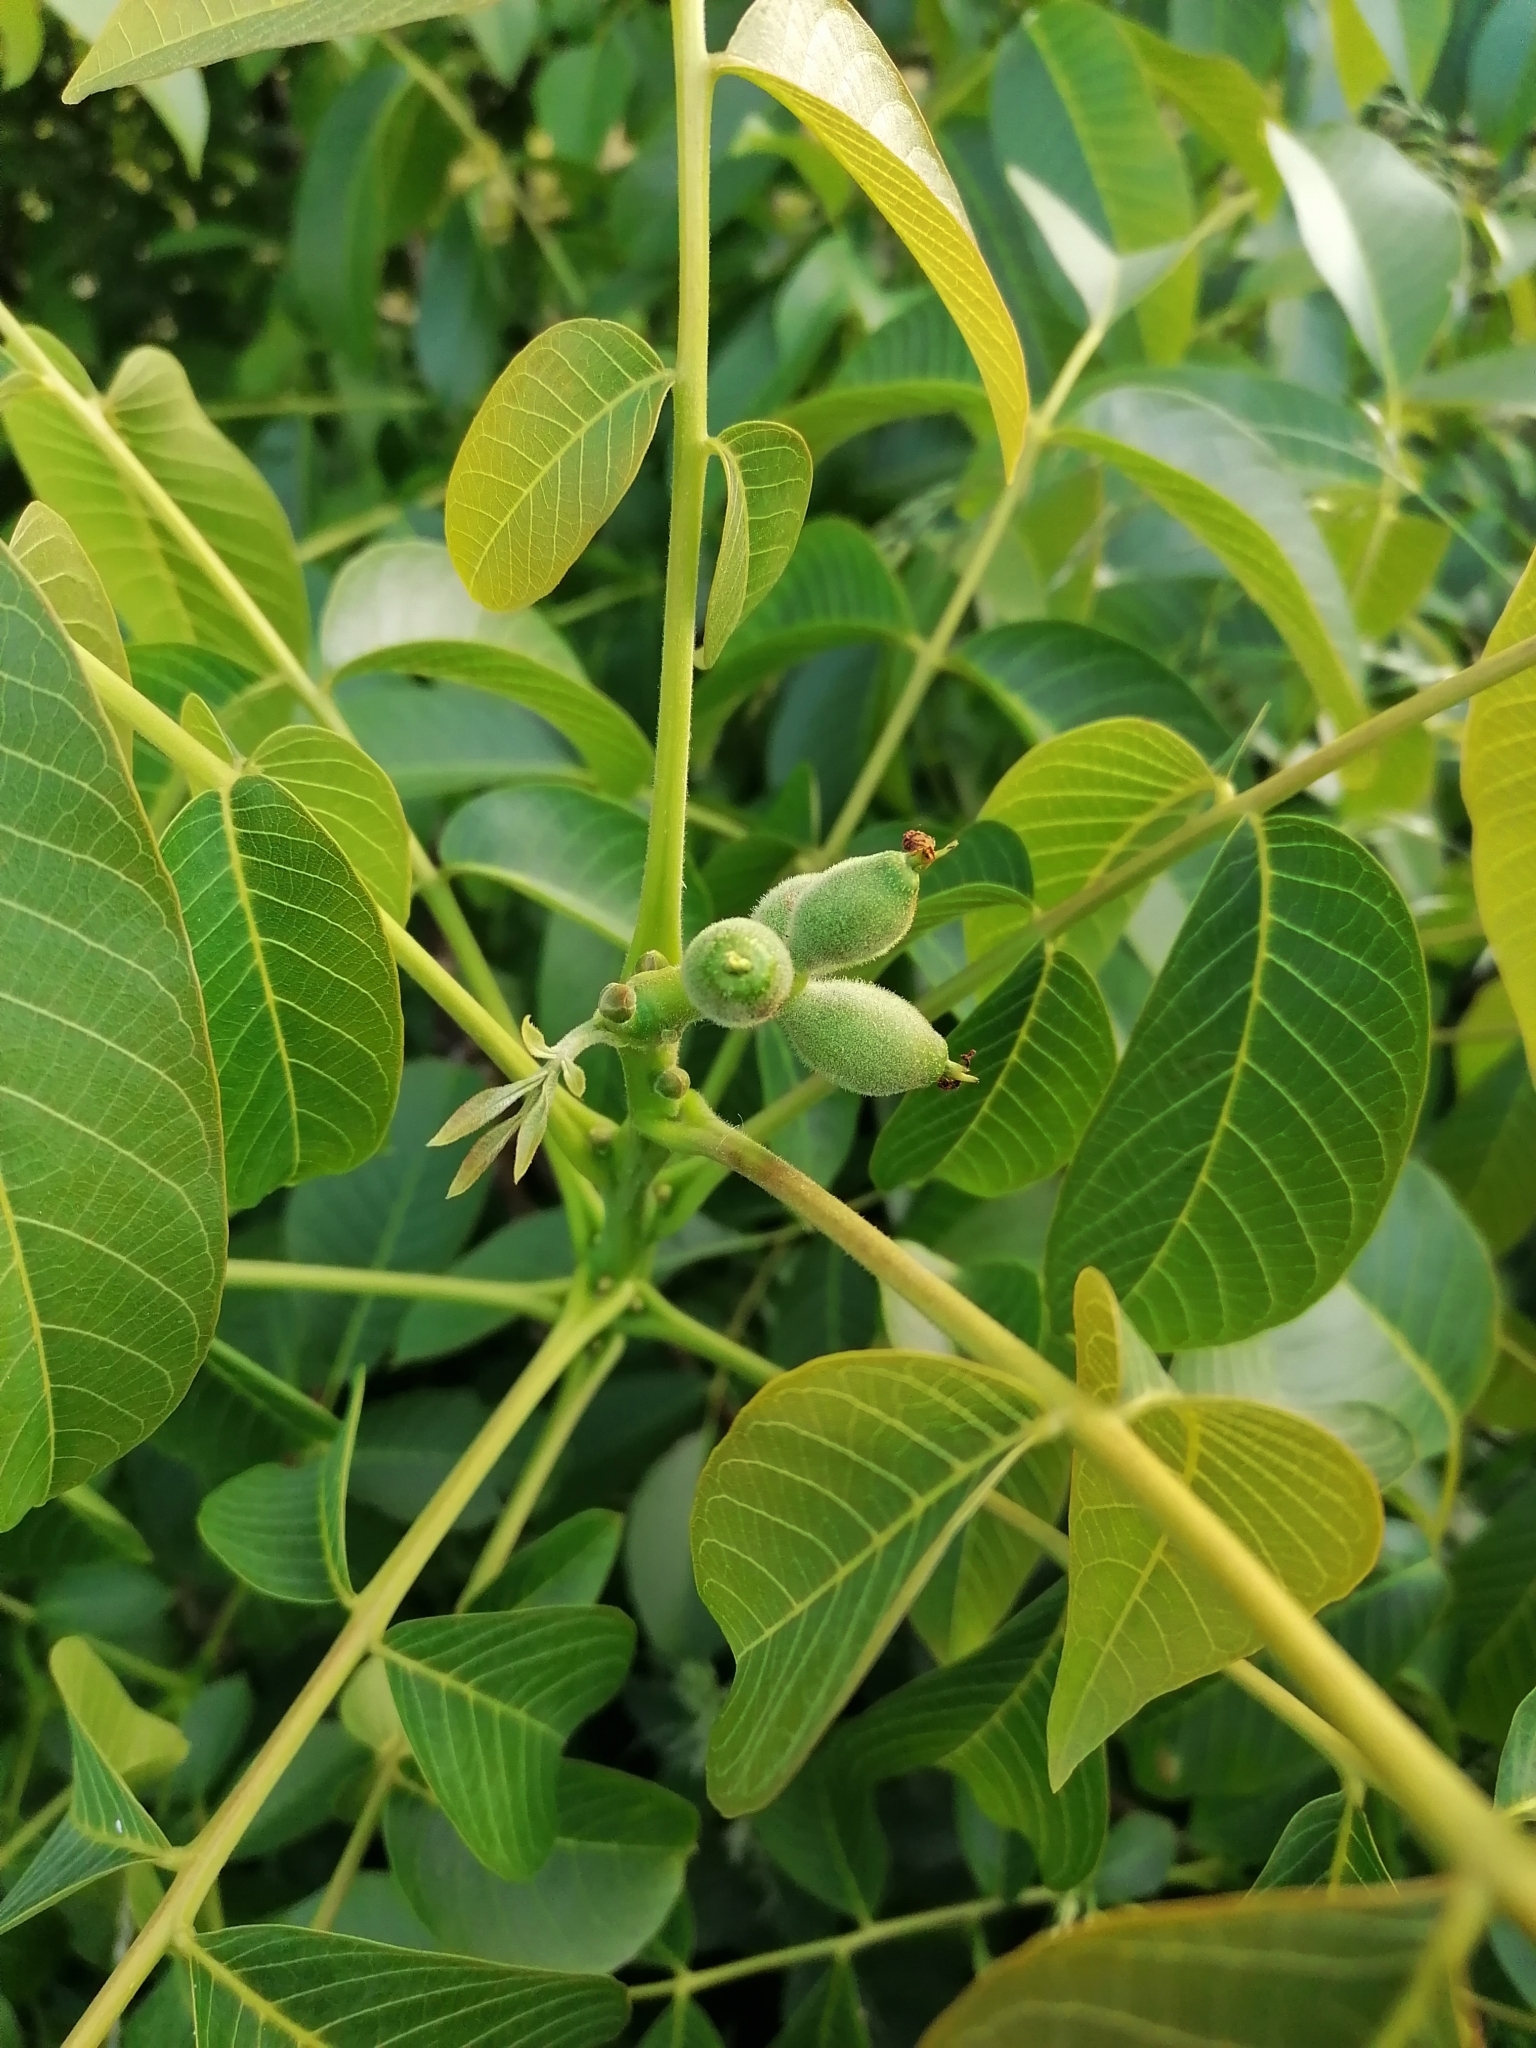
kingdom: Plantae
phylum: Tracheophyta
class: Magnoliopsida
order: Fagales
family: Juglandaceae
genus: Juglans
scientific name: Juglans regia
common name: Walnut
